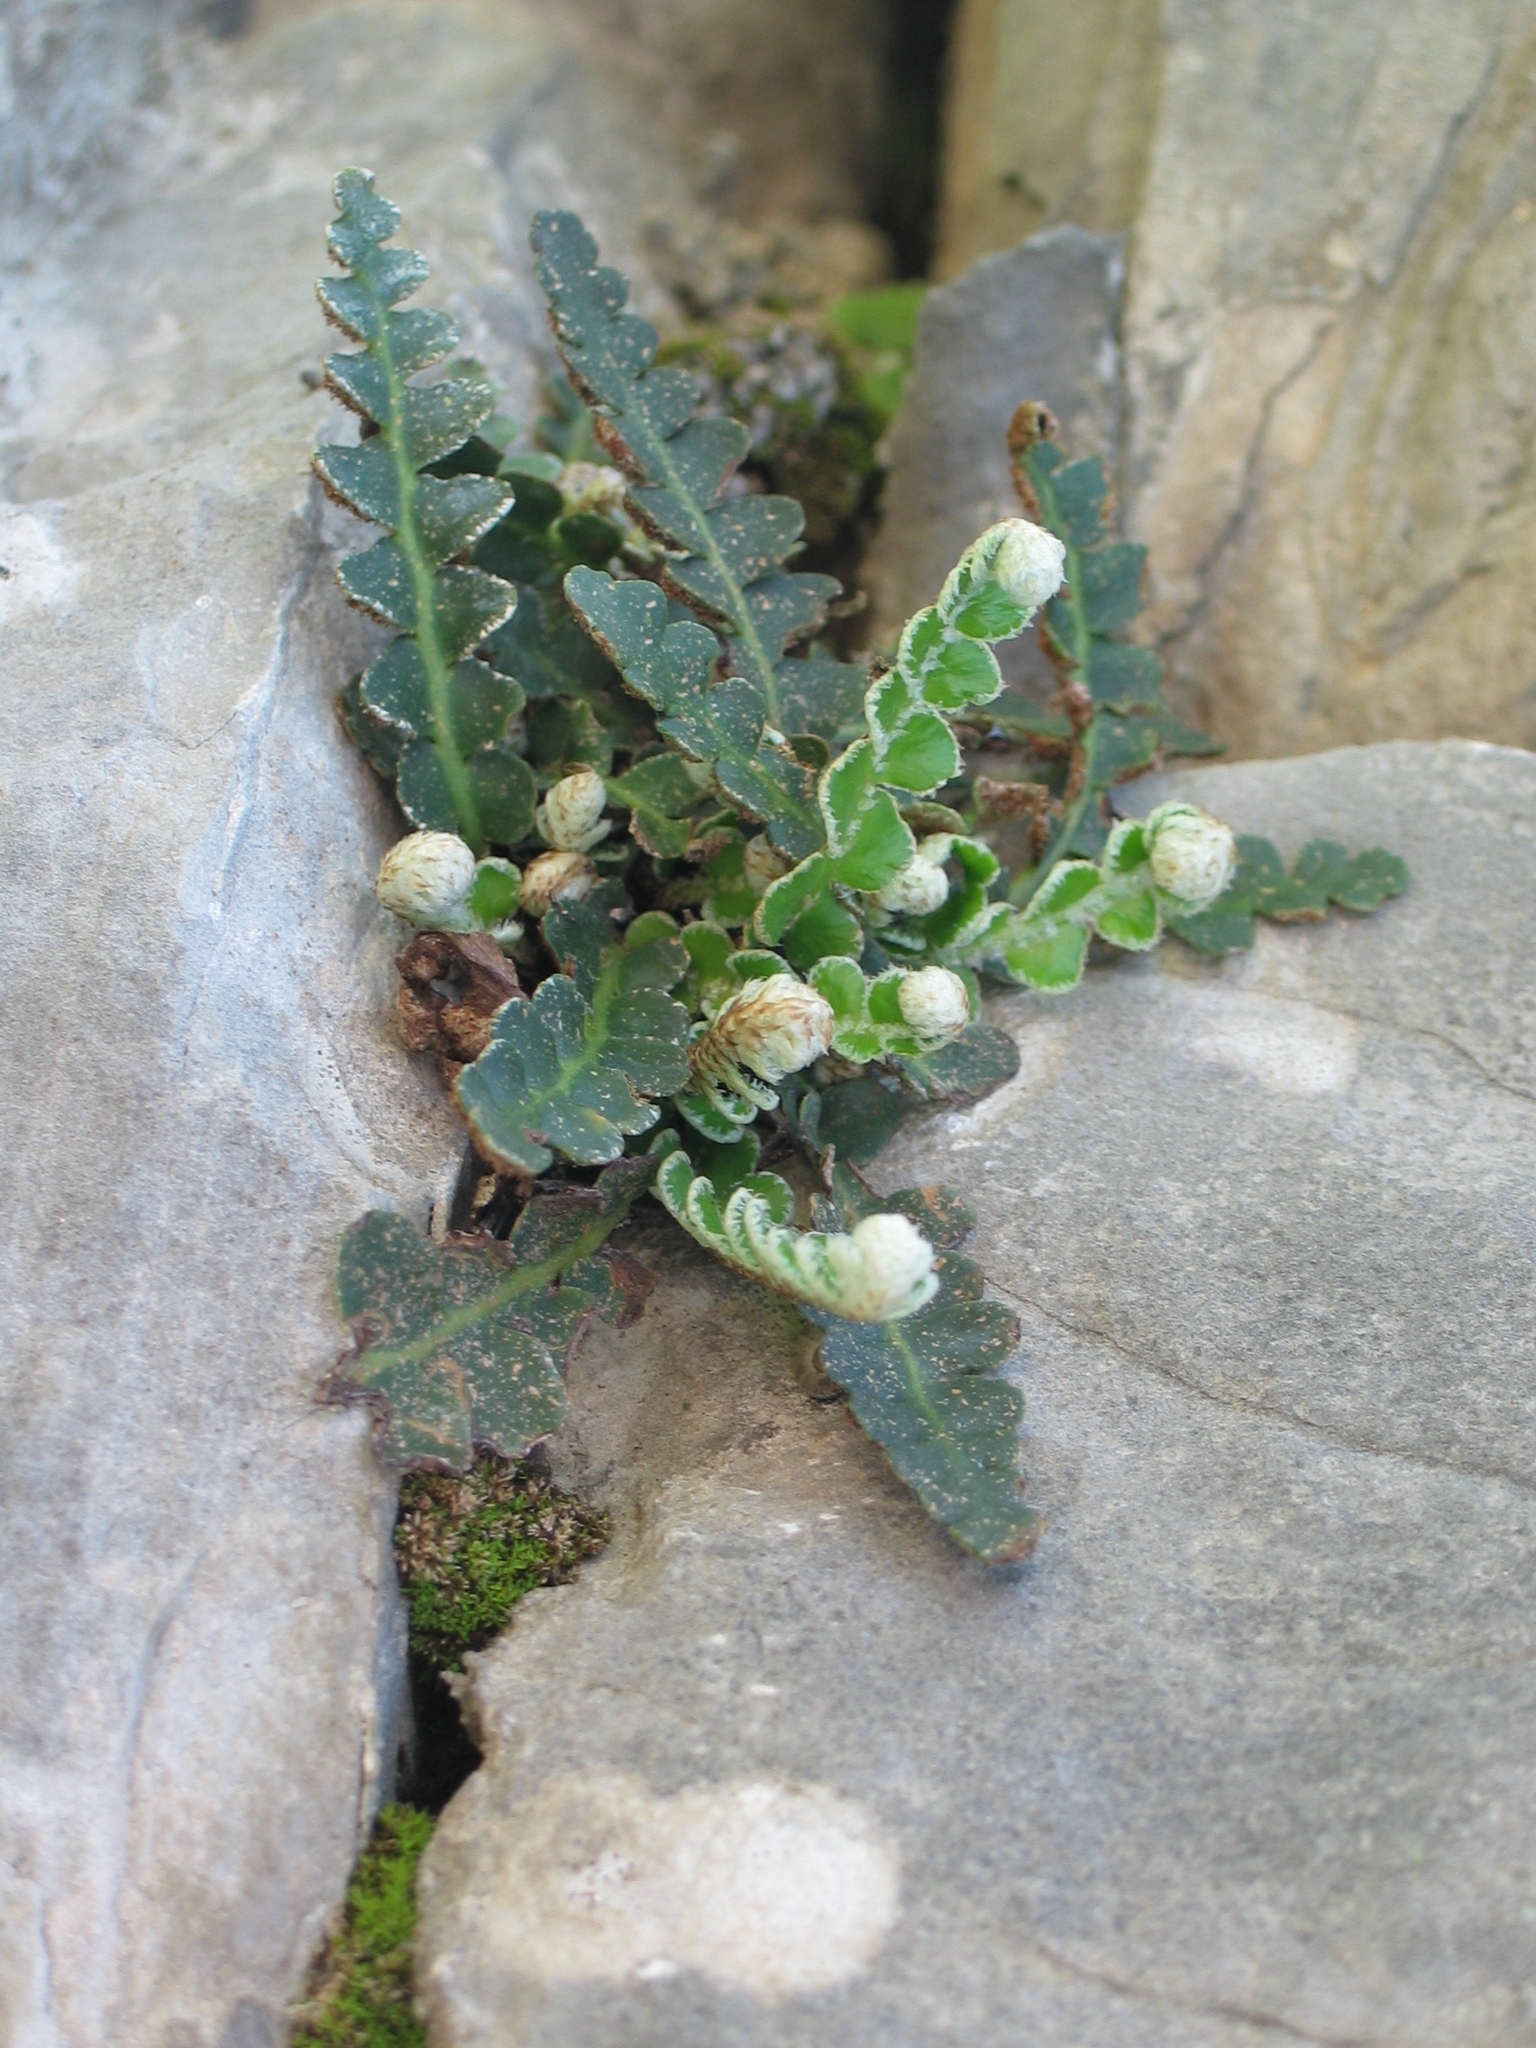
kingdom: Plantae
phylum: Tracheophyta
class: Polypodiopsida
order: Polypodiales
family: Aspleniaceae
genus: Asplenium
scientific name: Asplenium ceterach
